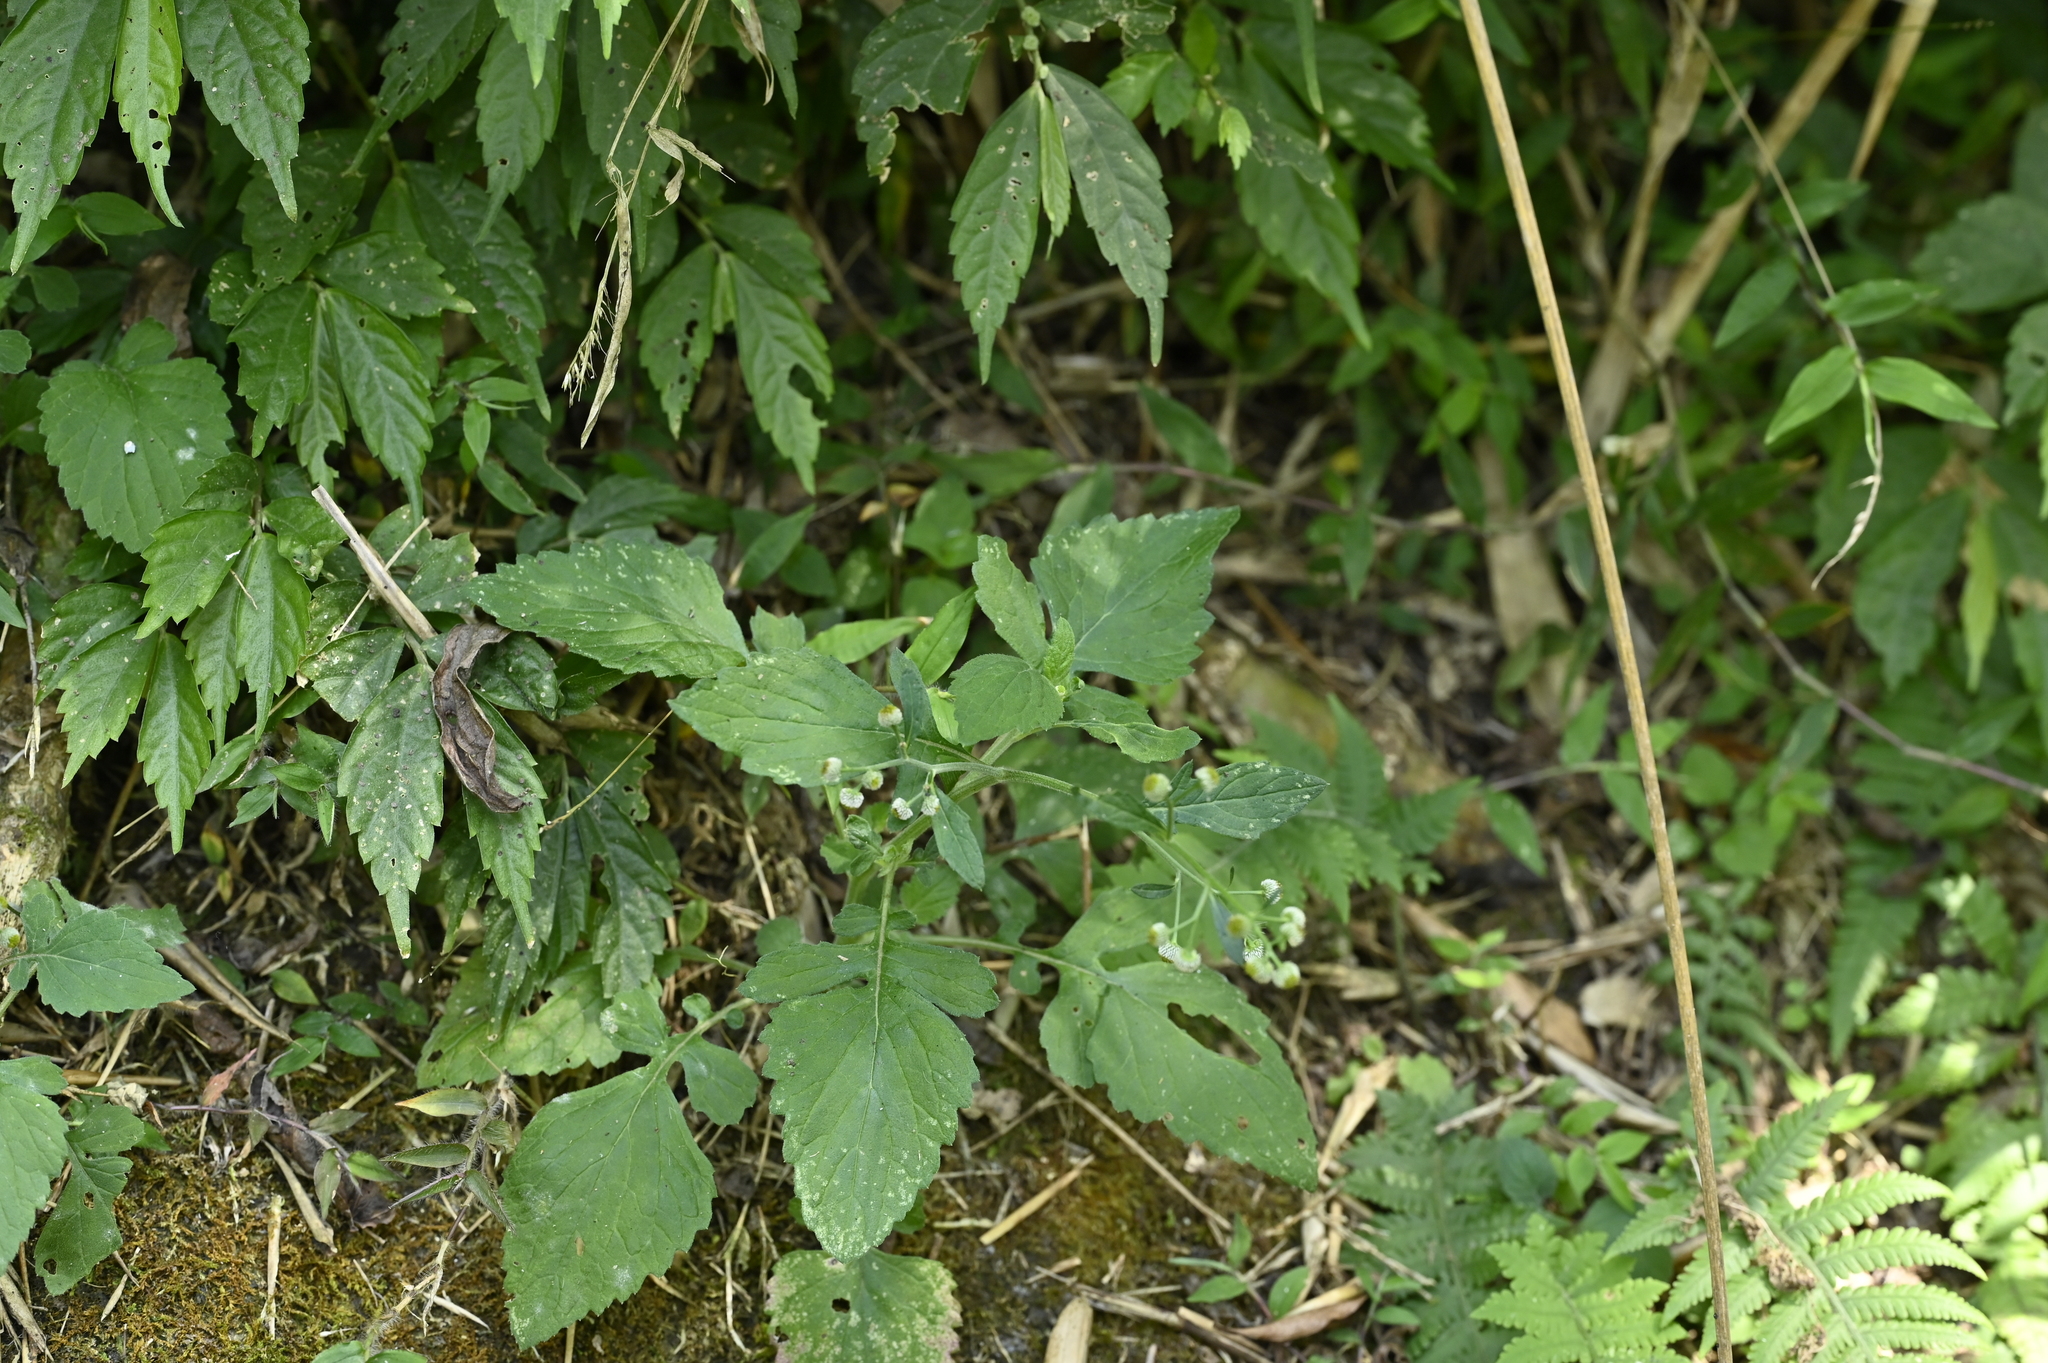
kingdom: Plantae
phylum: Tracheophyta
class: Magnoliopsida
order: Asterales
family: Asteraceae
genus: Dichrocephala
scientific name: Dichrocephala integrifolia
